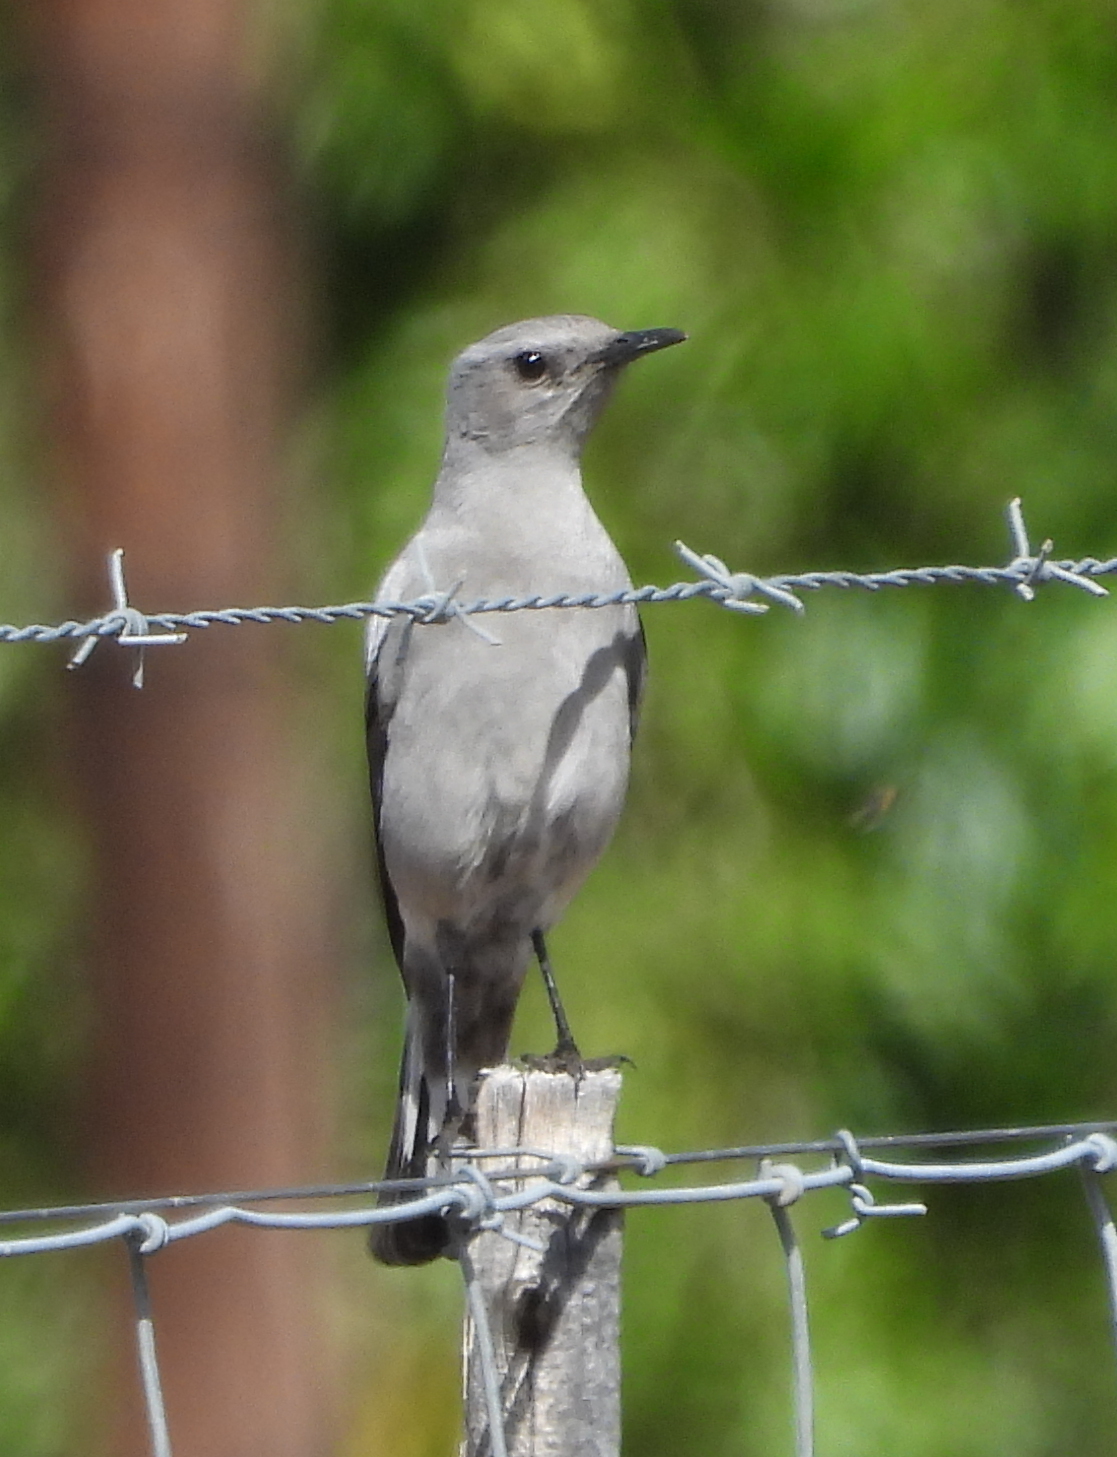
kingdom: Animalia
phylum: Chordata
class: Aves
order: Passeriformes
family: Muscicapidae
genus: Oenanthe
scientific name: Oenanthe monticola
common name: Mountain wheatear
